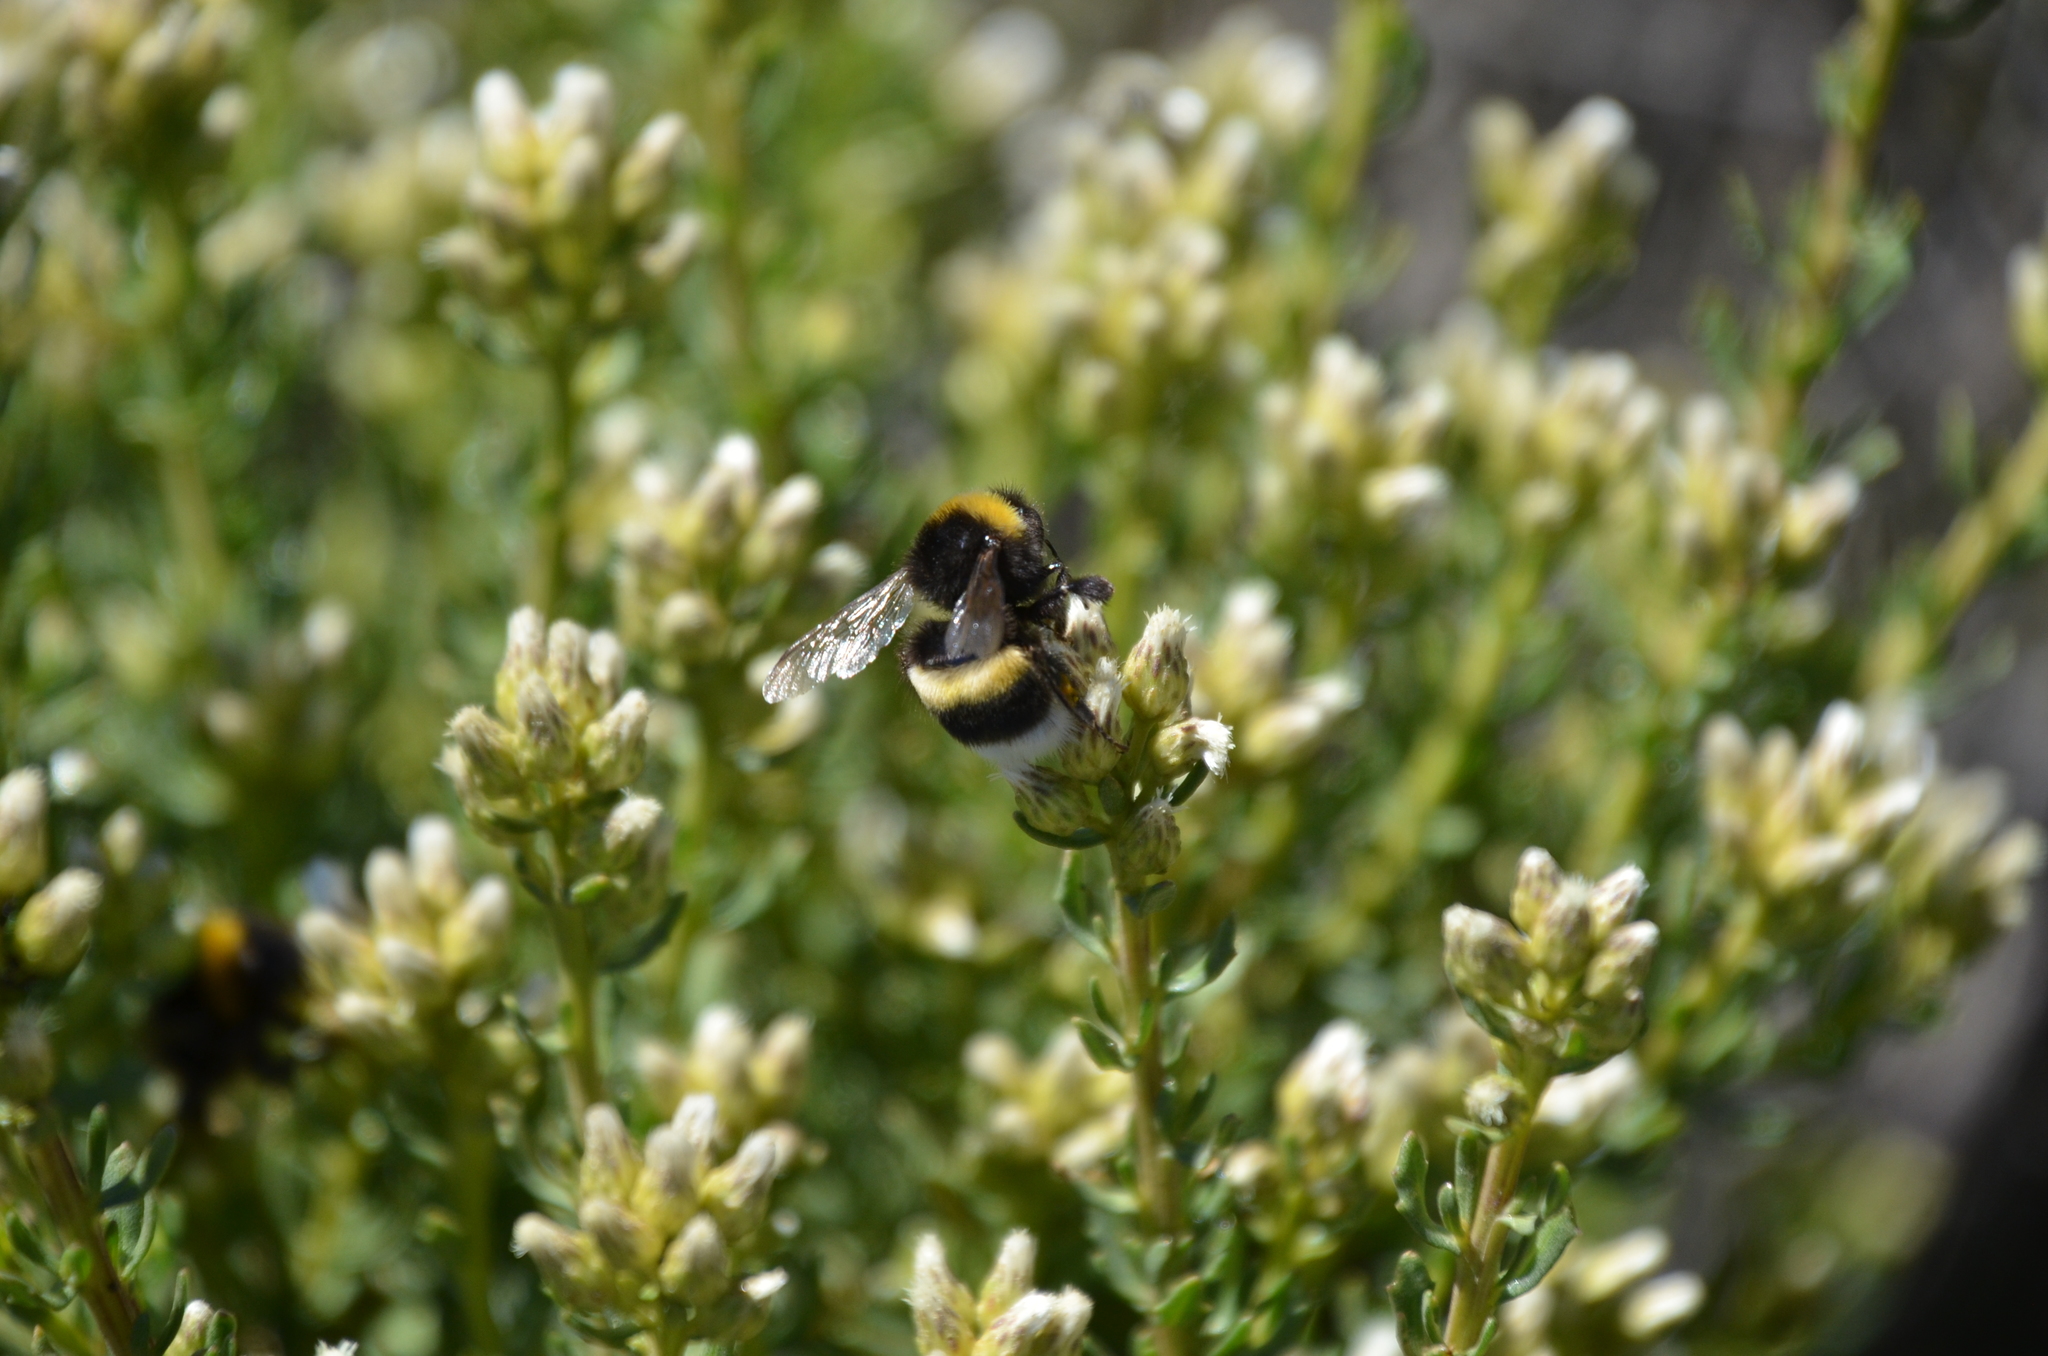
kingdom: Animalia
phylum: Arthropoda
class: Insecta
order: Hymenoptera
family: Apidae
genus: Bombus
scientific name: Bombus terrestris
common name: Buff-tailed bumblebee
